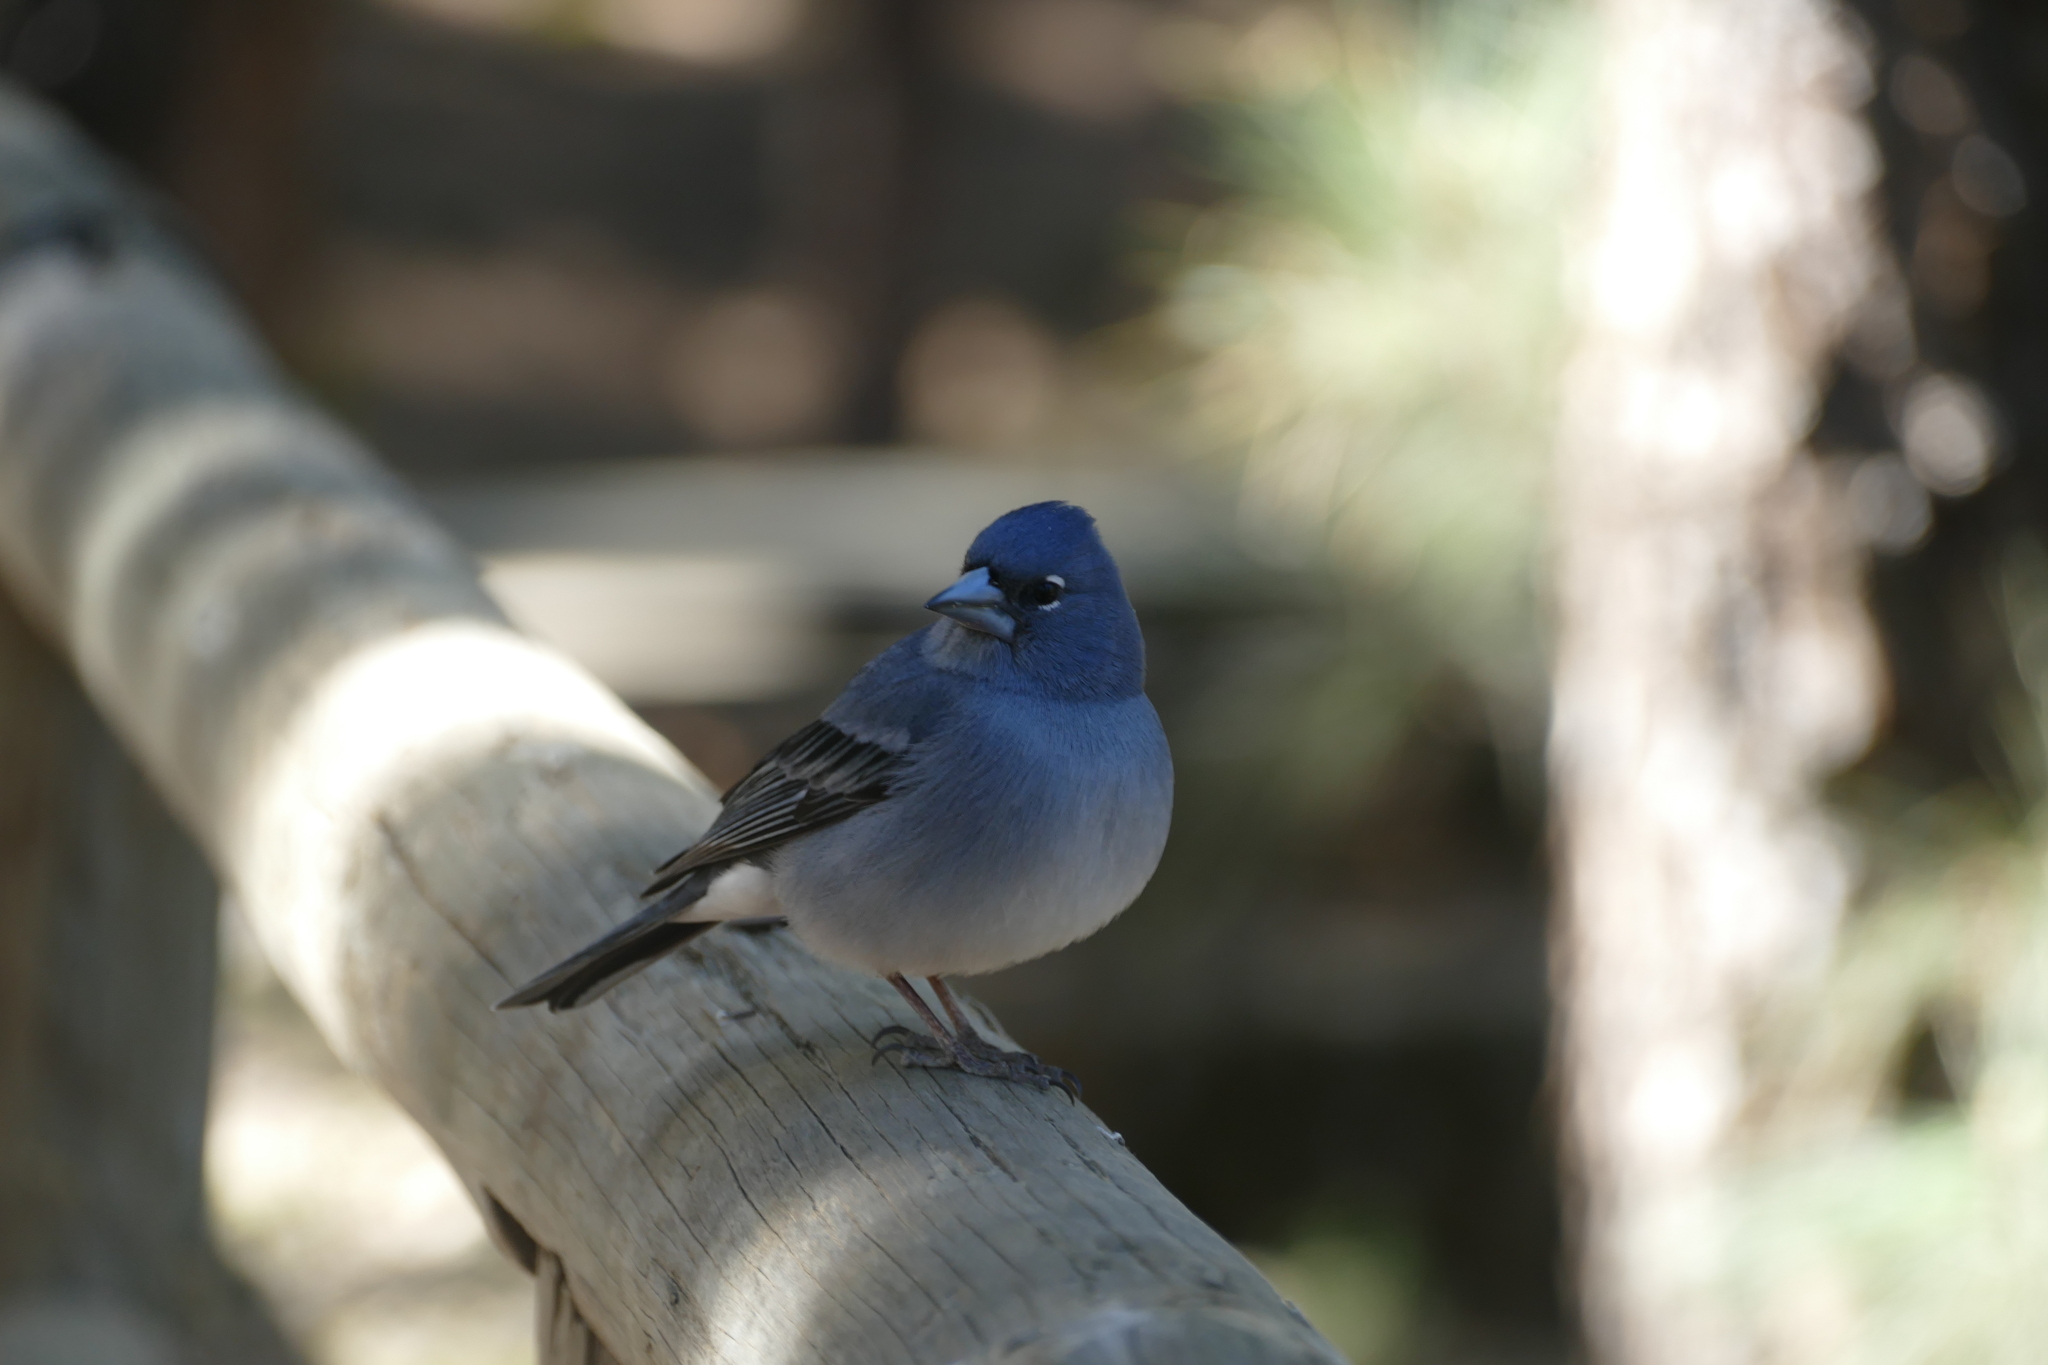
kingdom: Animalia
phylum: Chordata
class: Aves
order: Passeriformes
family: Fringillidae
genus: Fringilla
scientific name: Fringilla teydea
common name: Blue chaffinch
